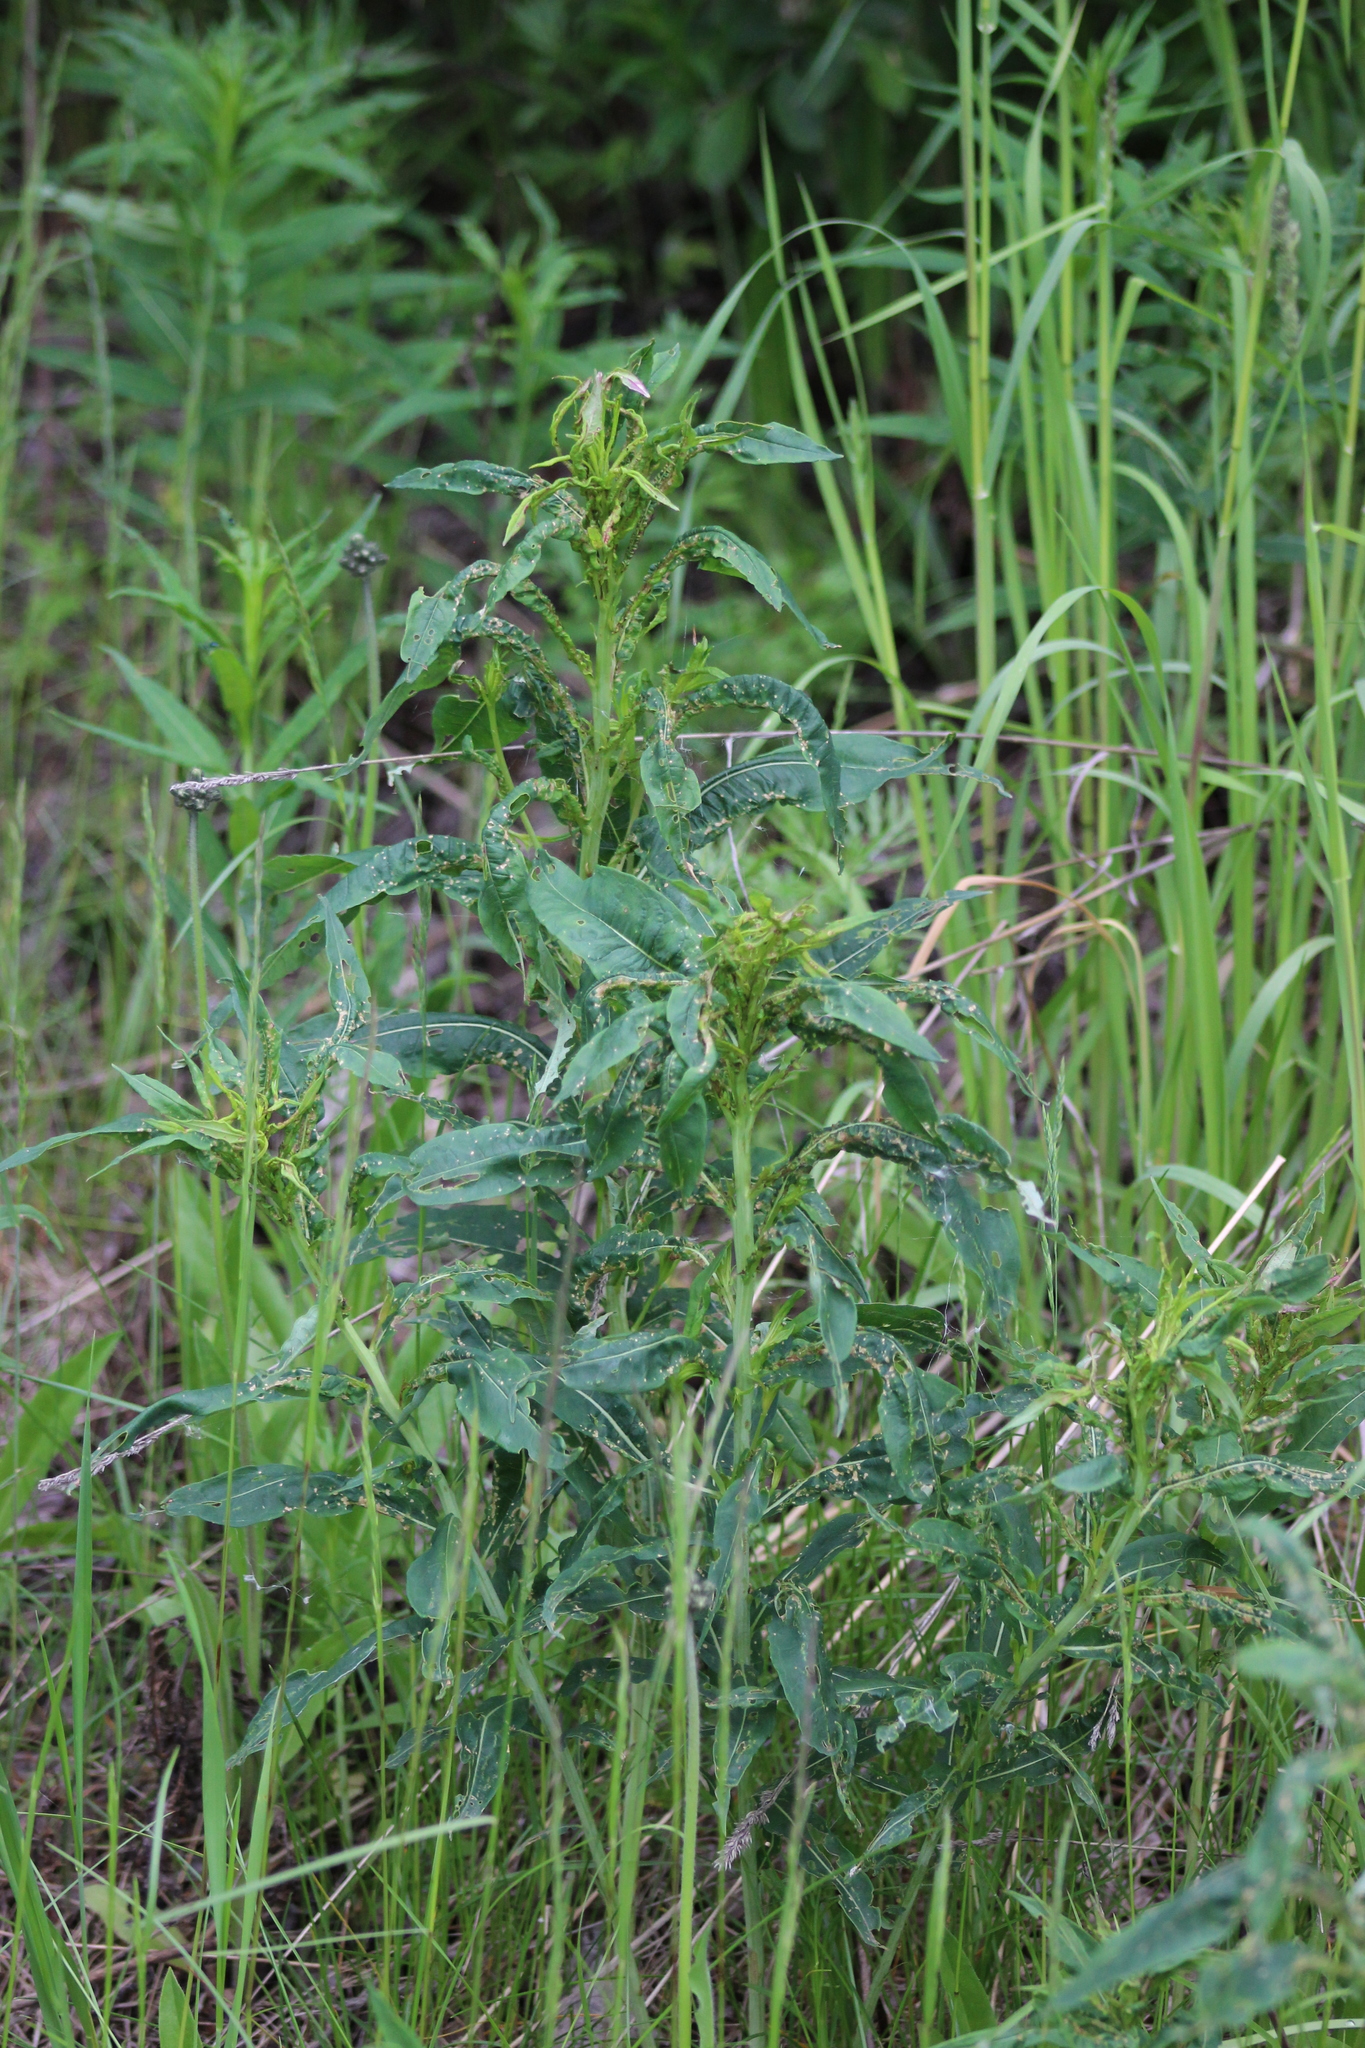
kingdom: Plantae
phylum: Tracheophyta
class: Magnoliopsida
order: Myrtales
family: Onagraceae
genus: Chamaenerion
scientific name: Chamaenerion angustifolium
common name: Fireweed
